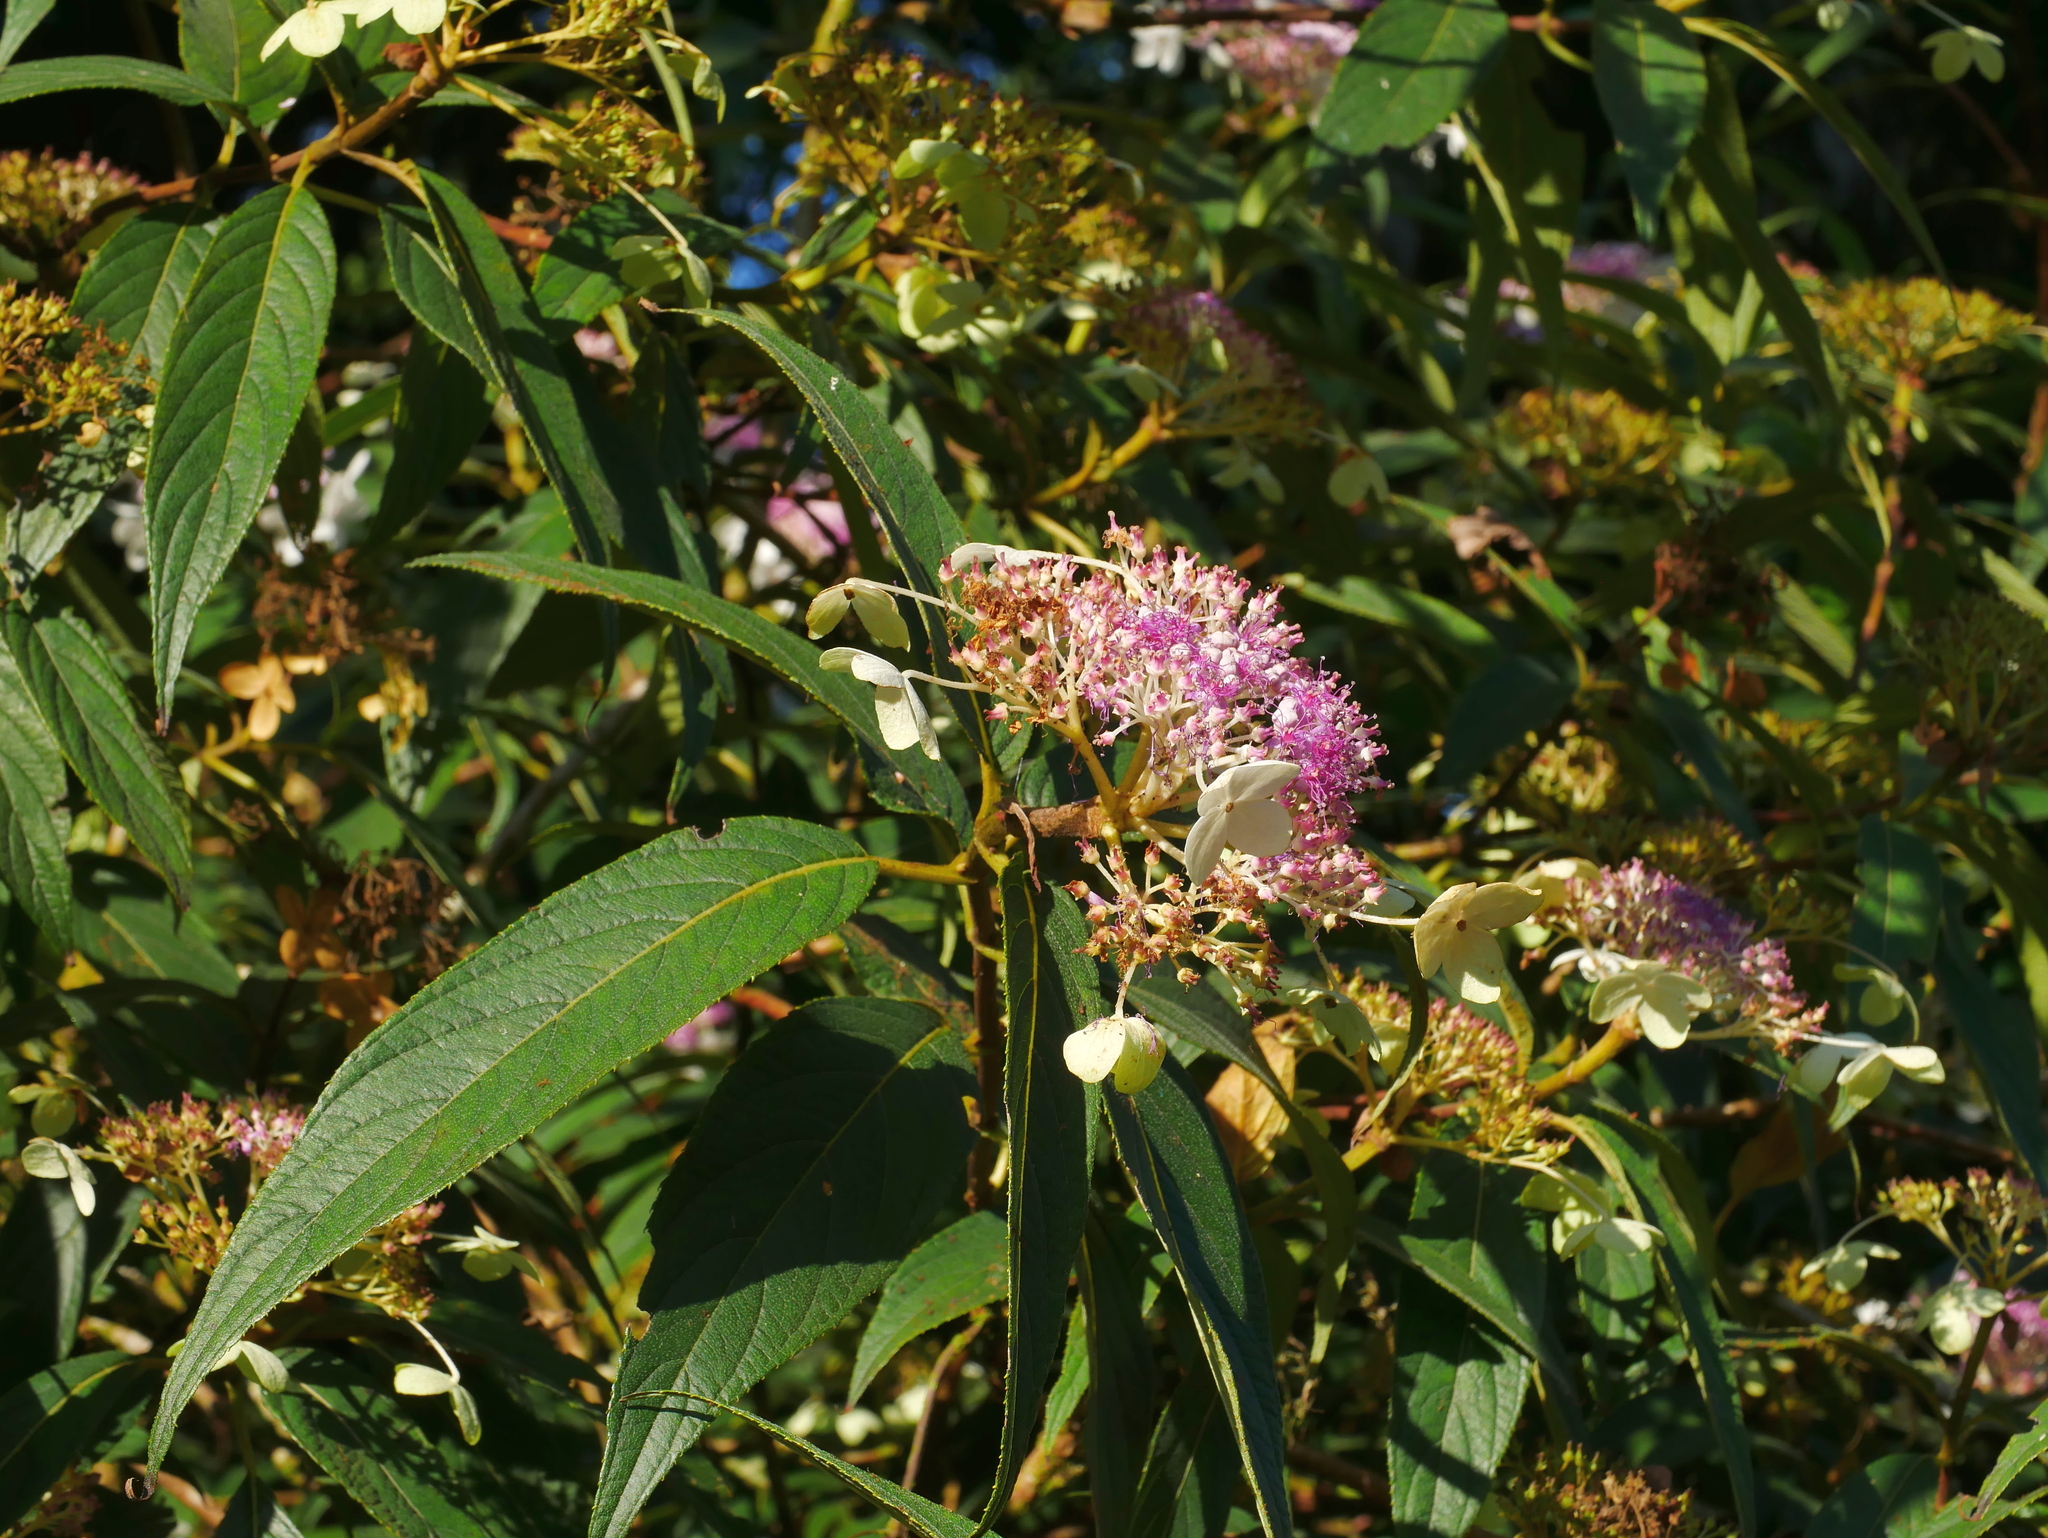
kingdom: Plantae
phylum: Tracheophyta
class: Magnoliopsida
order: Cornales
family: Hydrangeaceae
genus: Hydrangea
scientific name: Hydrangea longifolia
